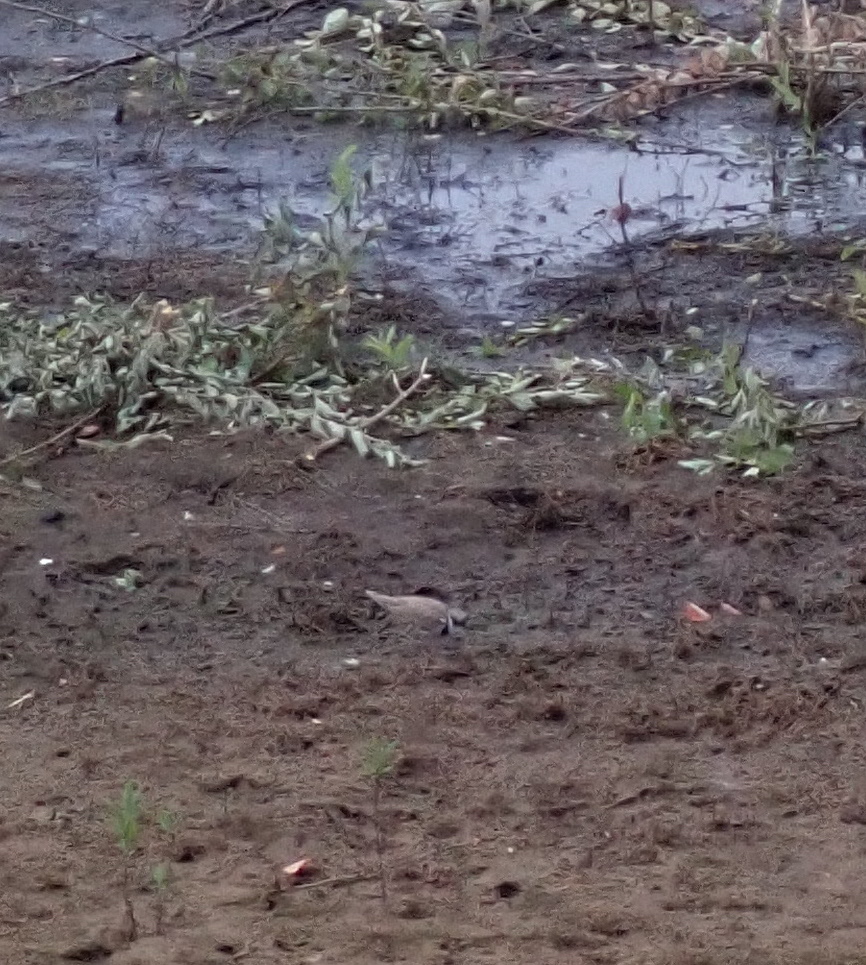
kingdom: Animalia
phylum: Chordata
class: Aves
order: Charadriiformes
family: Charadriidae
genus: Charadrius
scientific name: Charadrius dubius
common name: Little ringed plover
